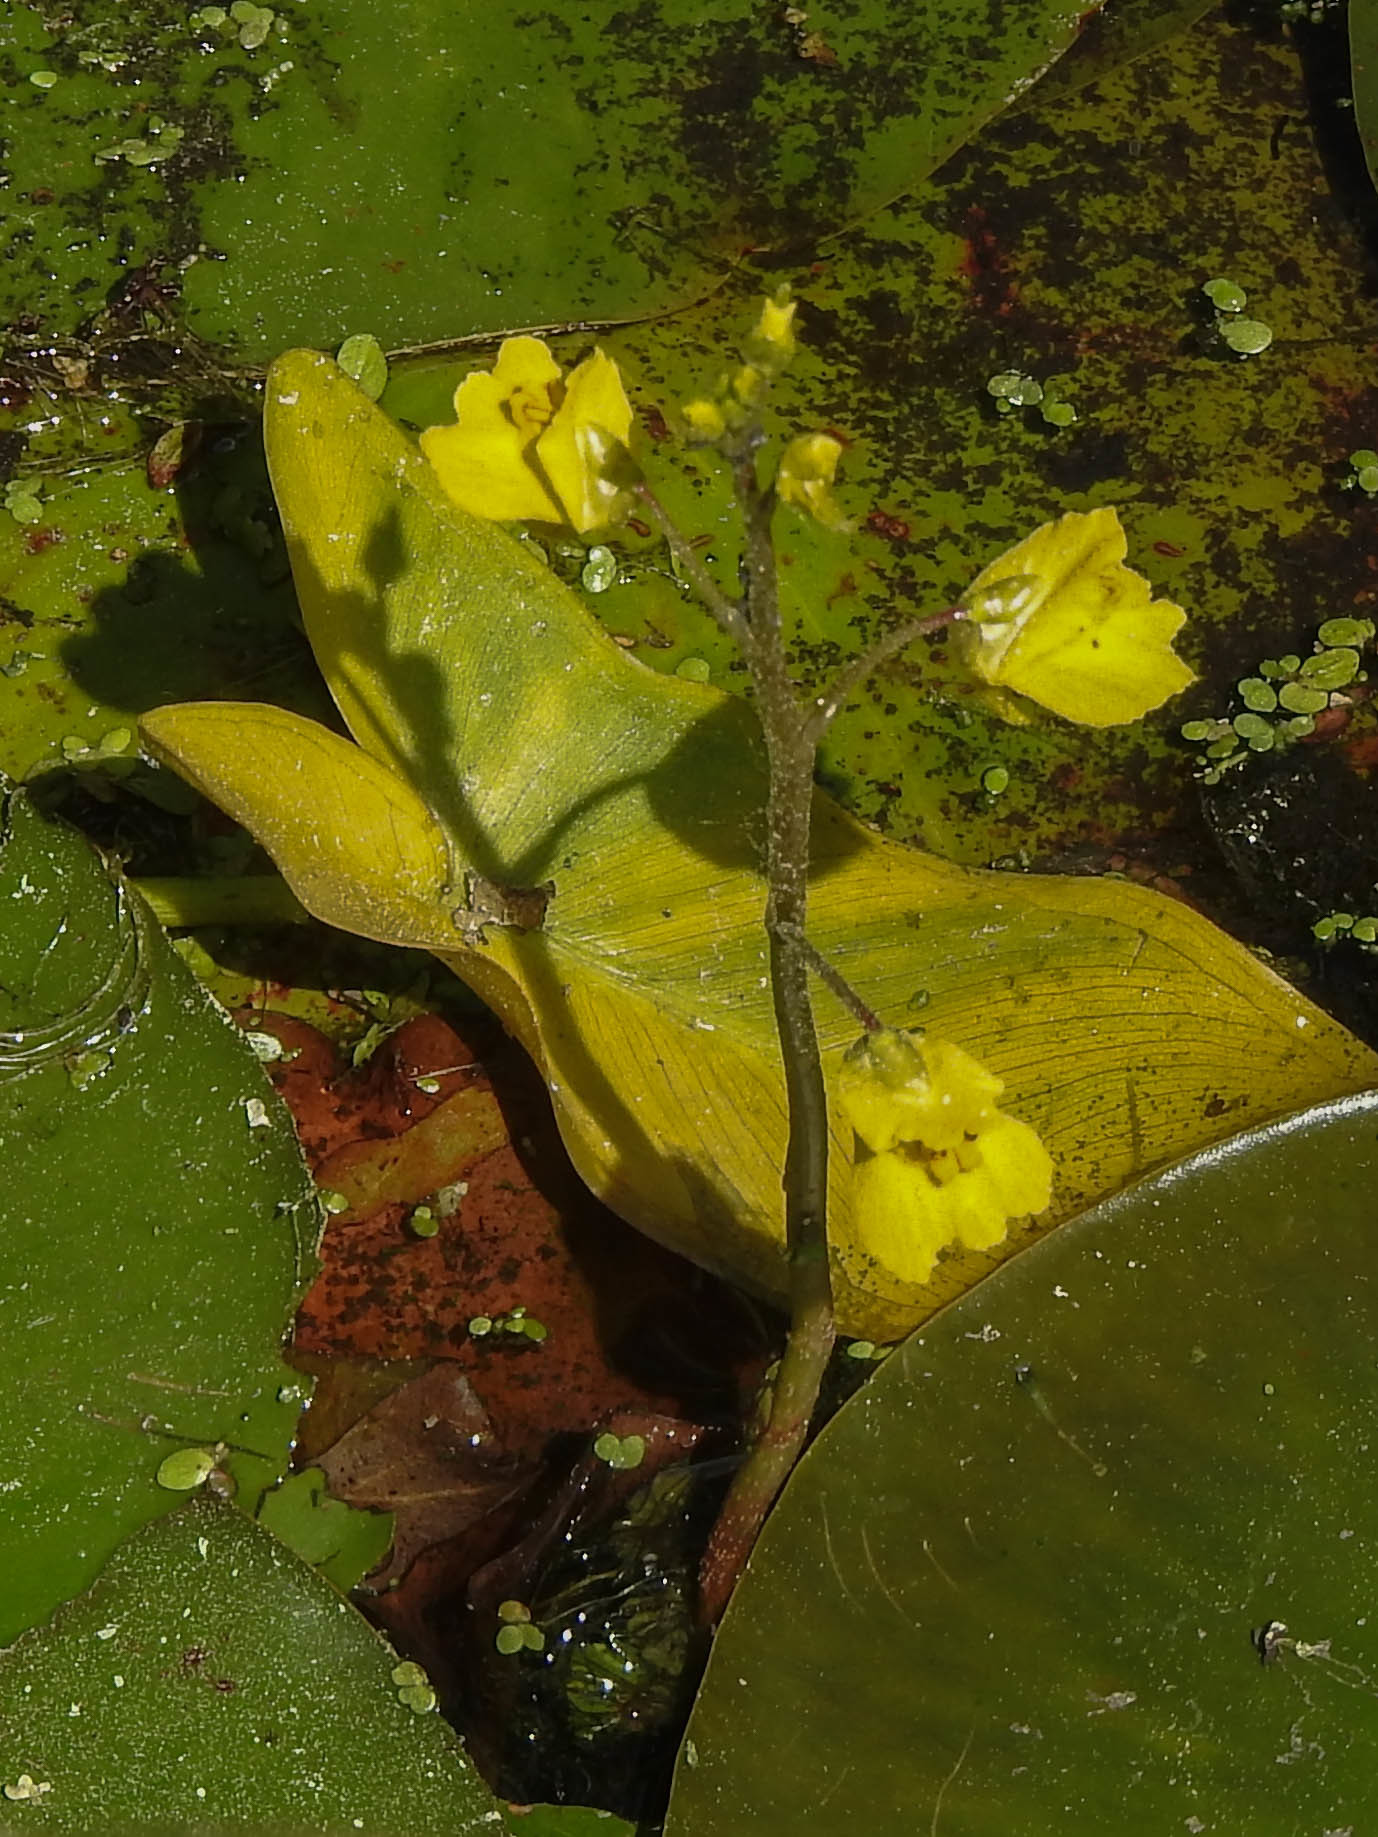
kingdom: Plantae
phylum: Tracheophyta
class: Magnoliopsida
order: Lamiales
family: Lentibulariaceae
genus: Utricularia
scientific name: Utricularia macrorhiza
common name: Common bladderwort
